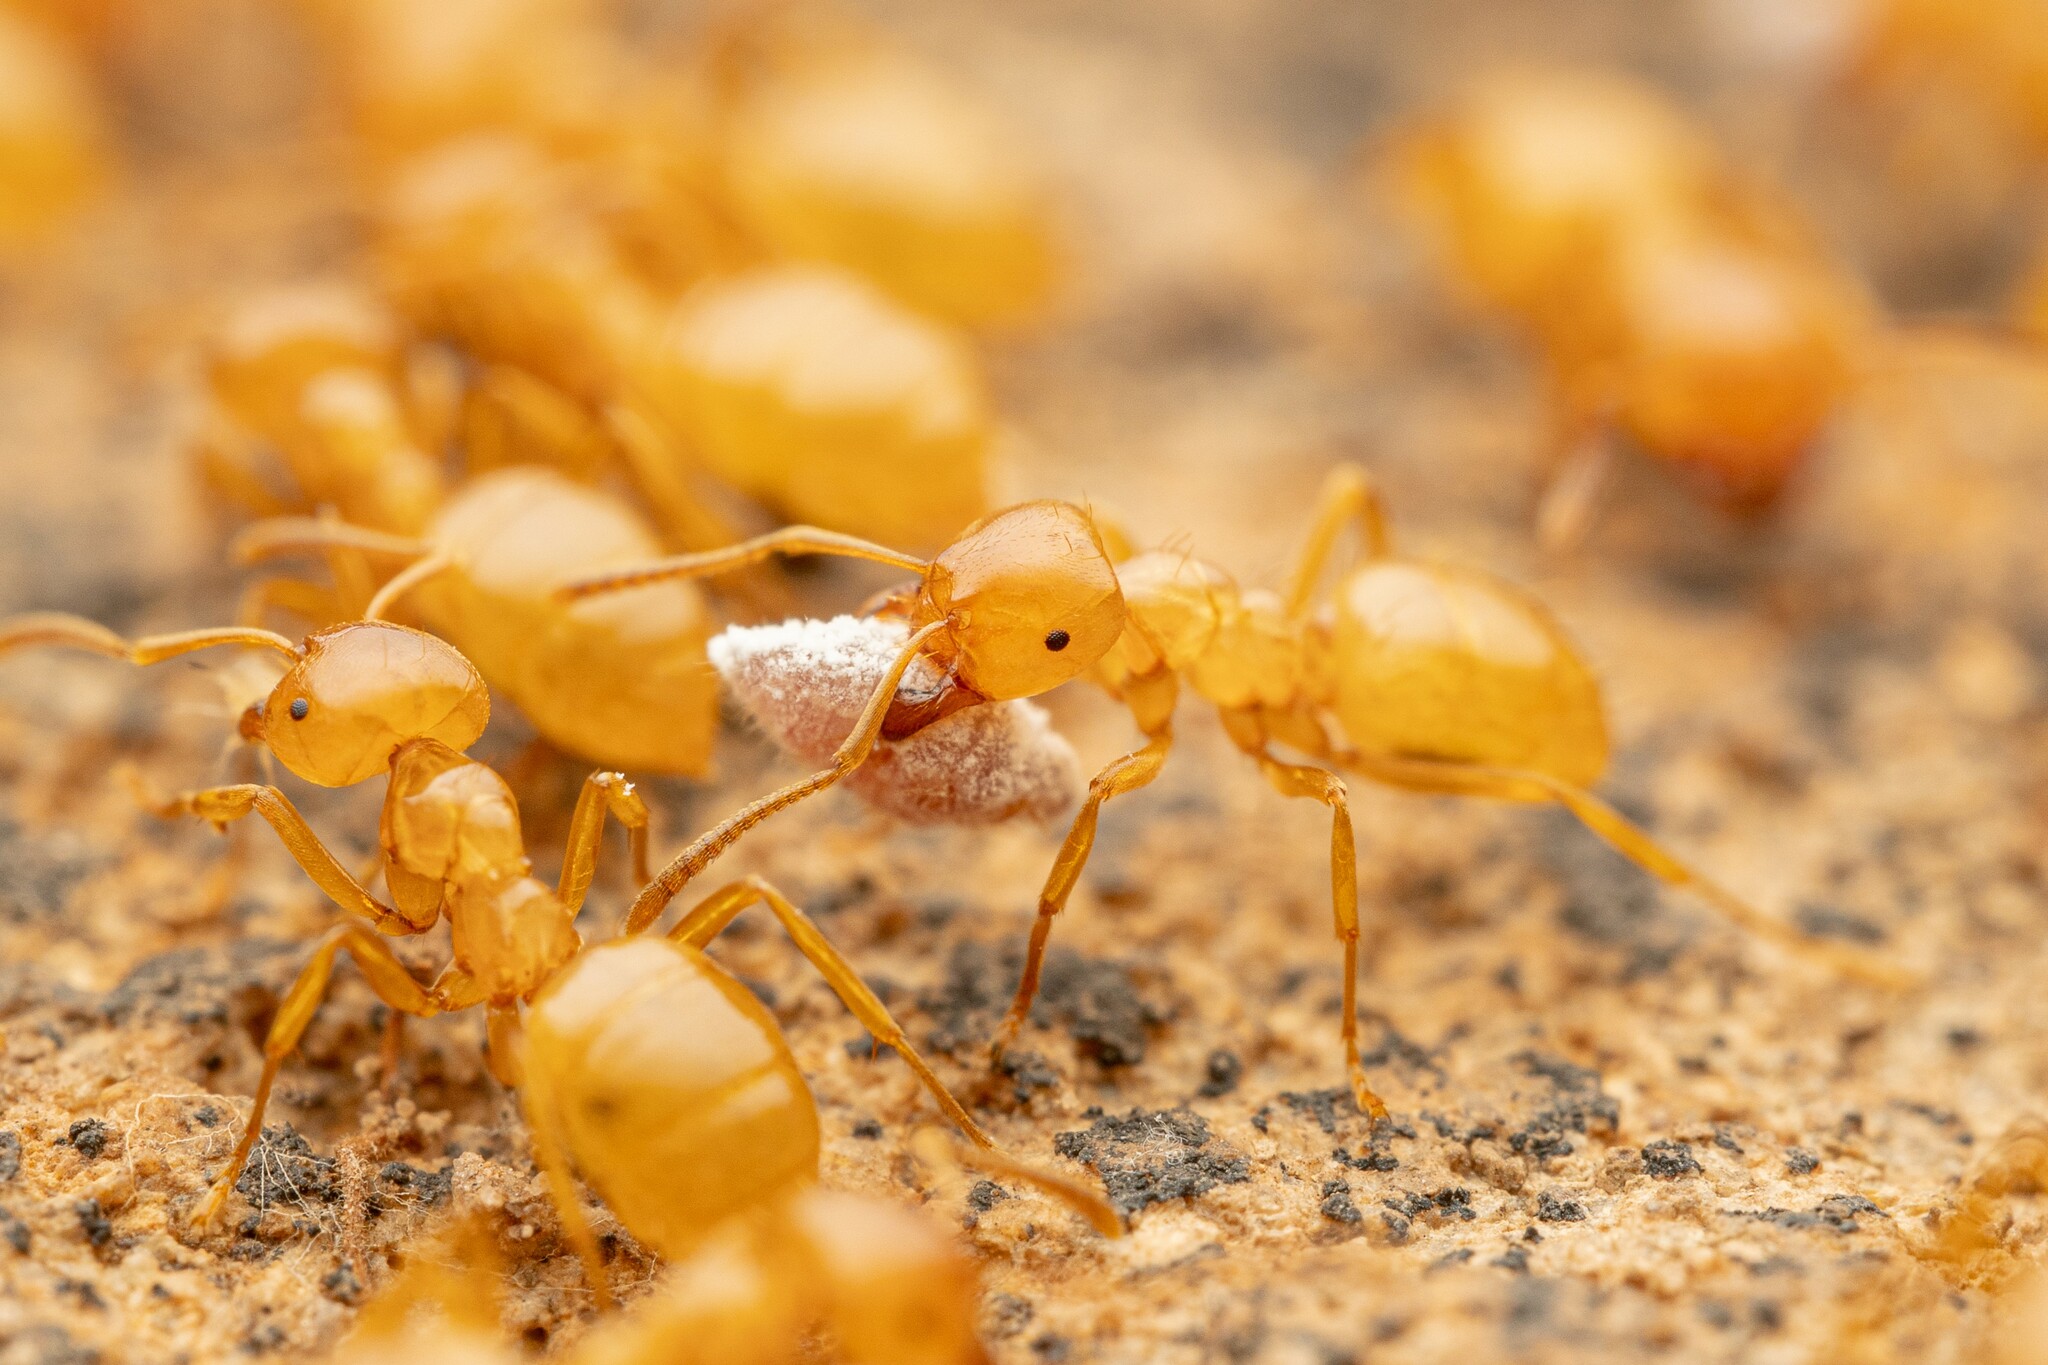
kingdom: Animalia
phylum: Arthropoda
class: Insecta
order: Hymenoptera
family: Formicidae
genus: Lasius
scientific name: Lasius arizonicus
